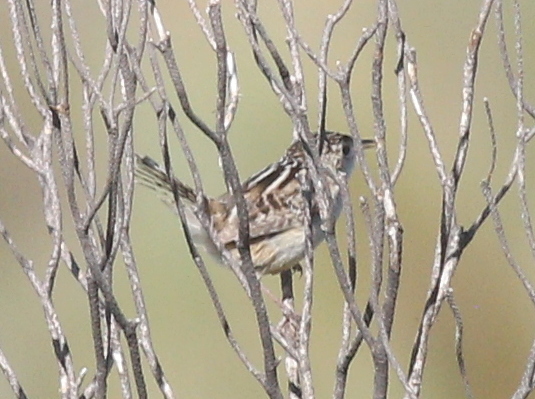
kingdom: Animalia
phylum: Chordata
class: Aves
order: Passeriformes
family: Troglodytidae
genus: Cistothorus
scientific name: Cistothorus platensis
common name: Sedge wren
